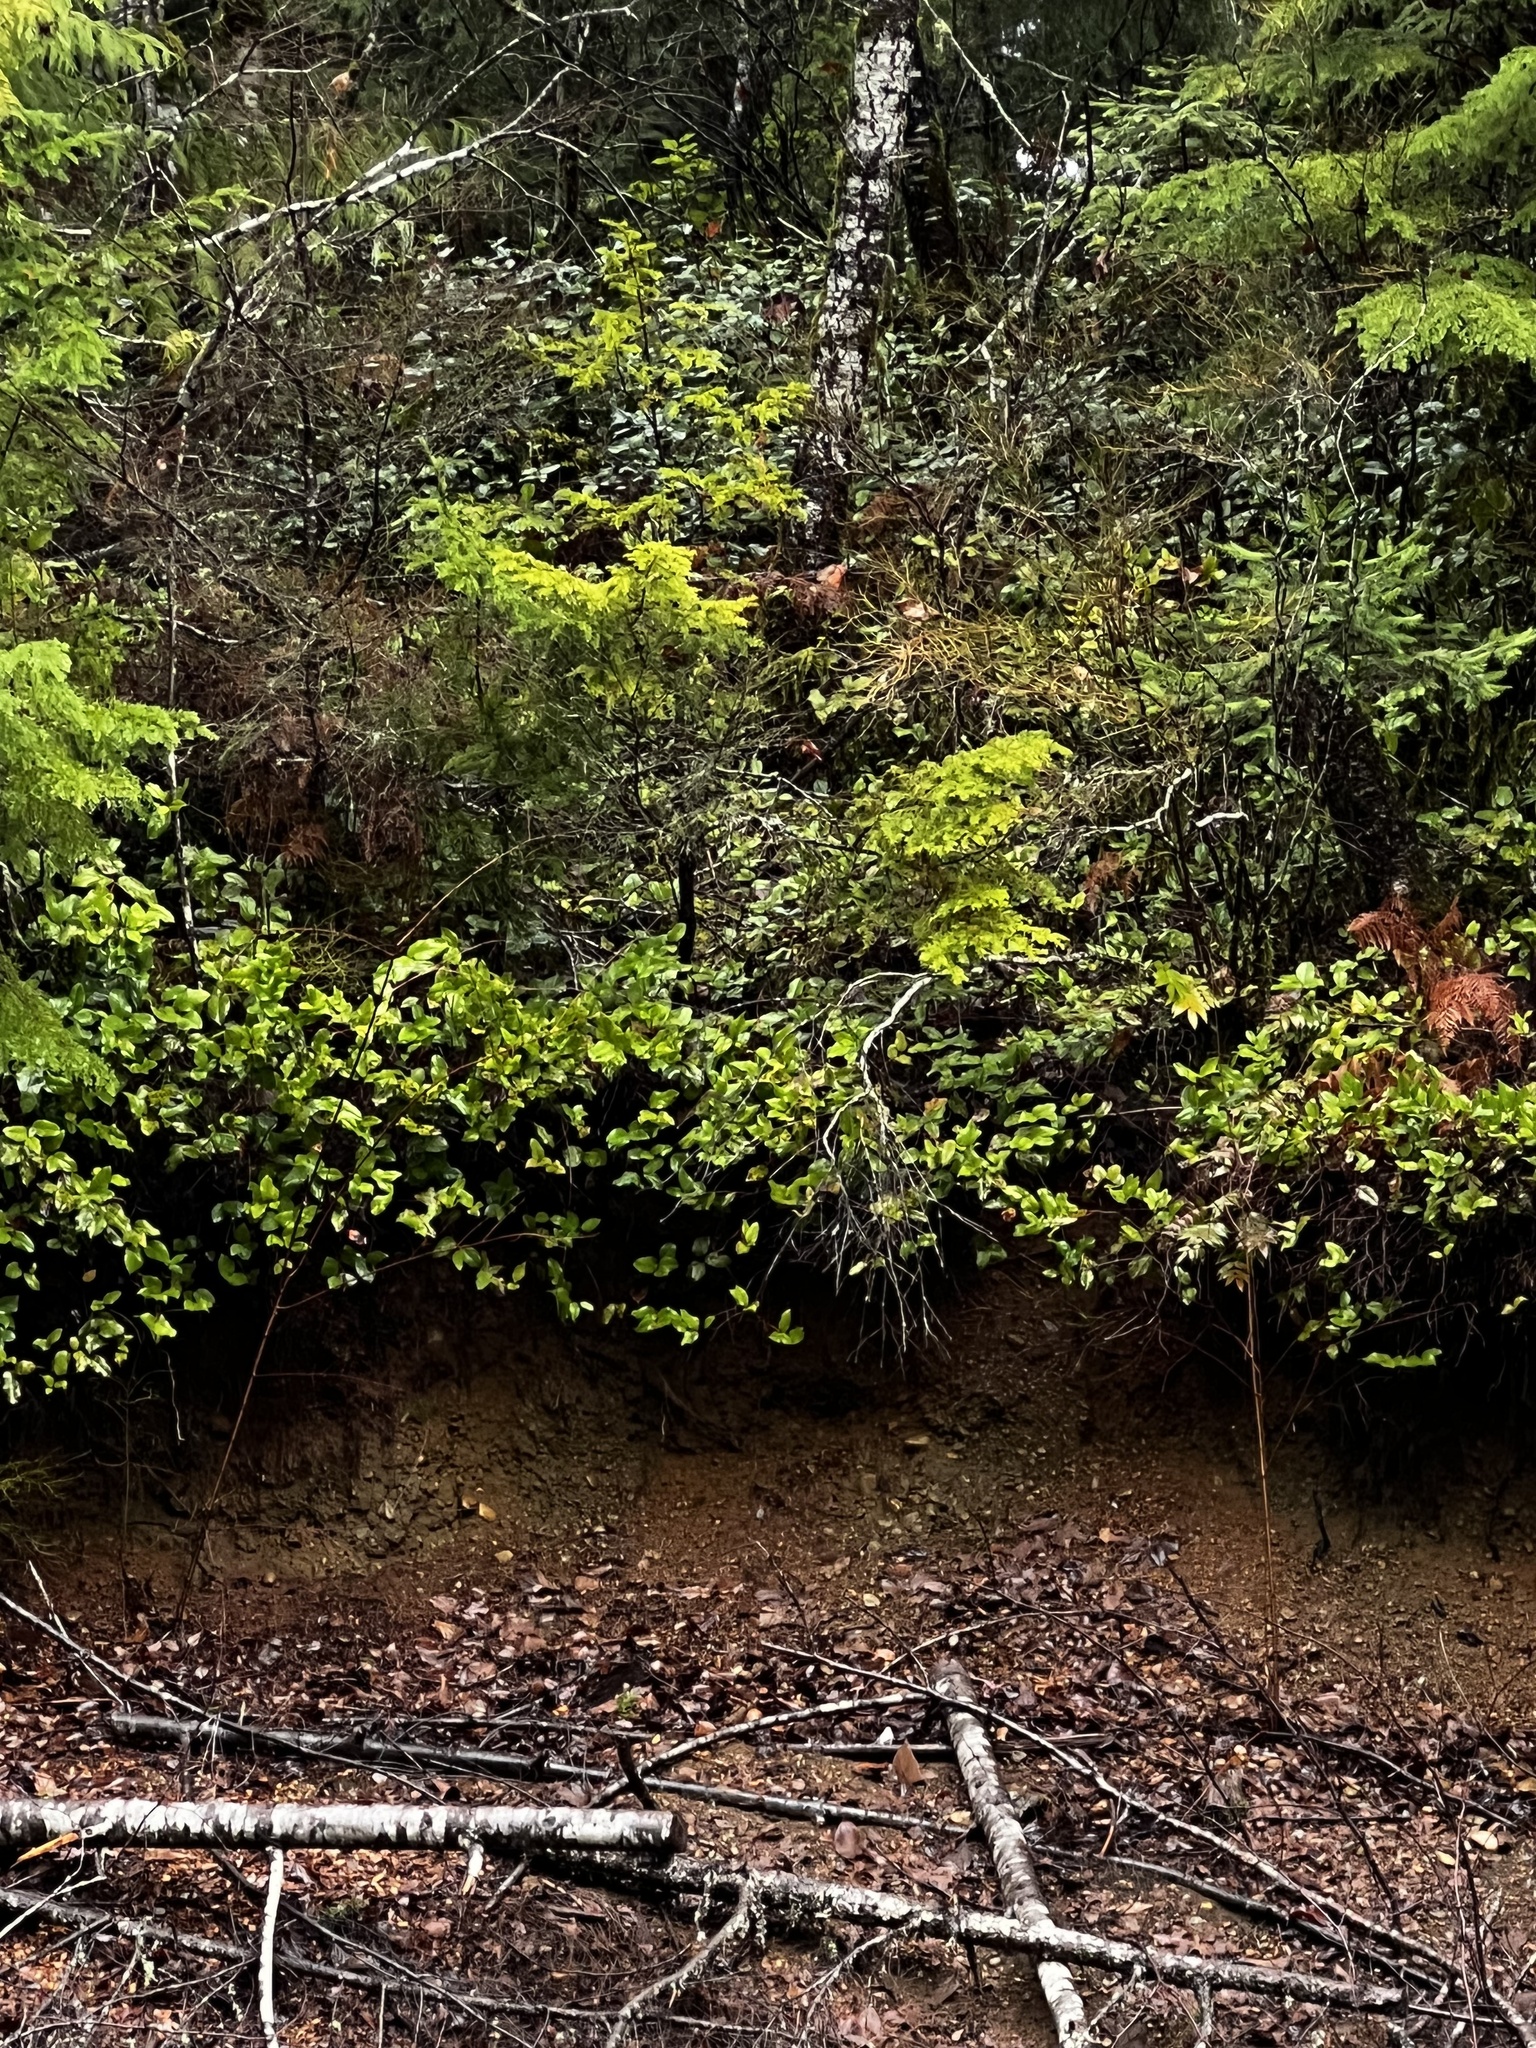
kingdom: Plantae
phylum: Tracheophyta
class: Magnoliopsida
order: Ericales
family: Ericaceae
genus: Gaultheria
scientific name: Gaultheria shallon
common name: Shallon
